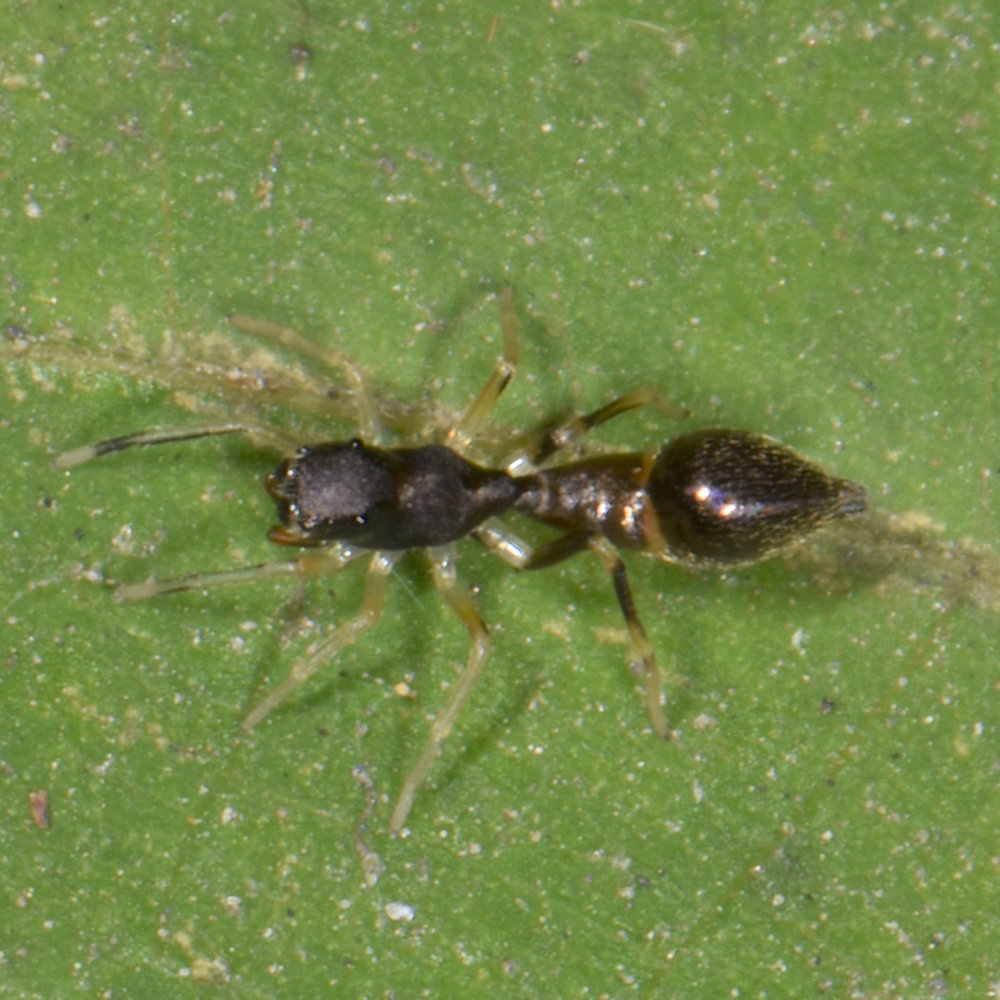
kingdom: Animalia
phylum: Arthropoda
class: Arachnida
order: Araneae
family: Salticidae
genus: Synemosyna
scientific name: Synemosyna formica
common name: Slender ant-mimic jumping spider
